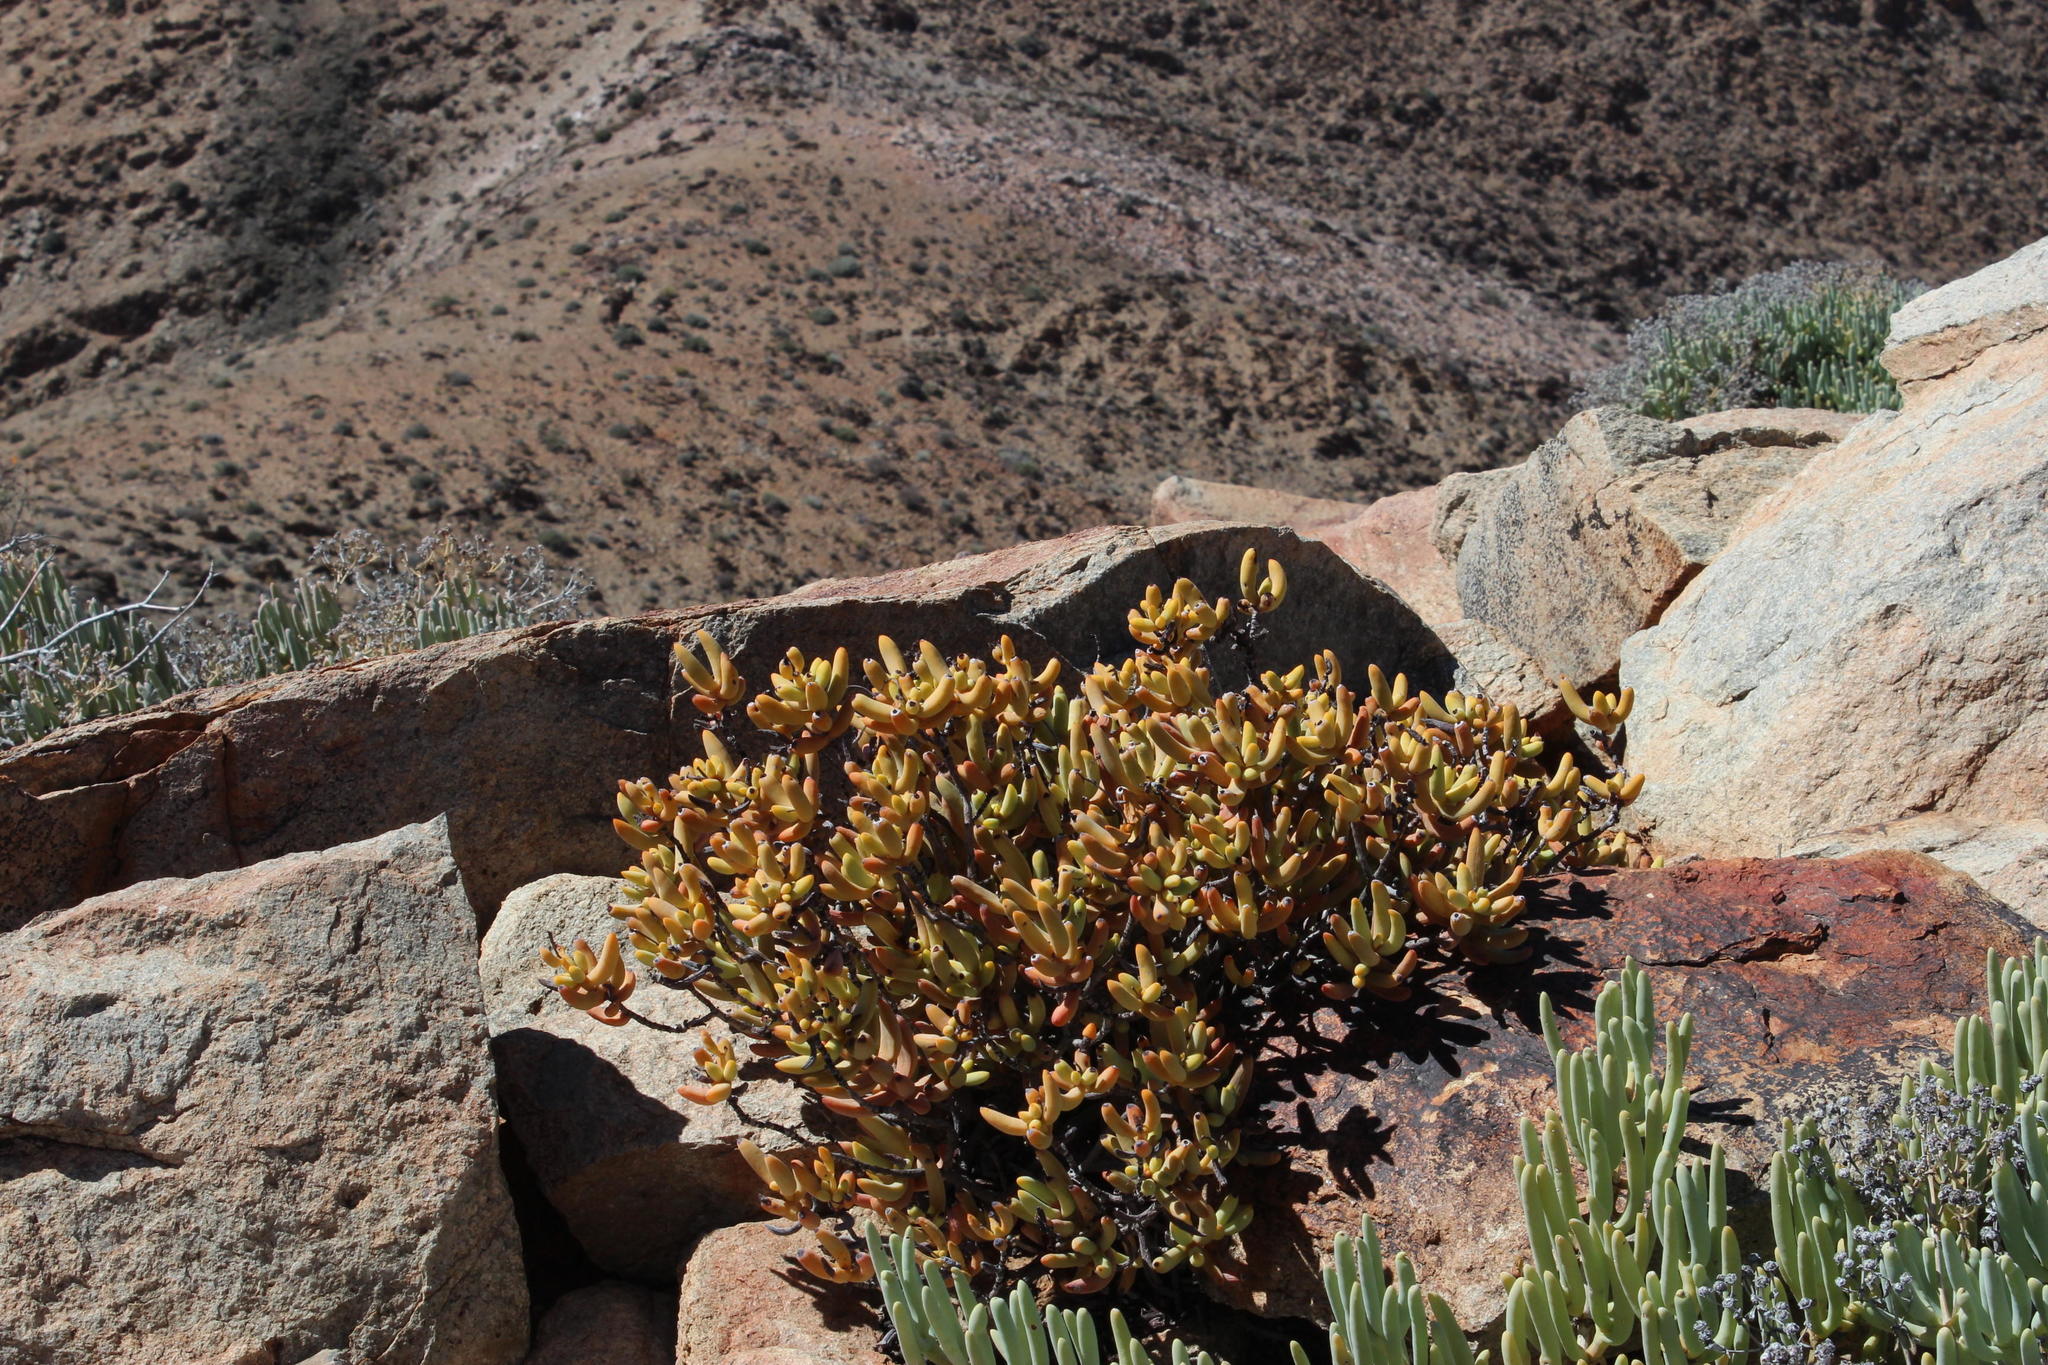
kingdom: Plantae
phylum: Tracheophyta
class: Magnoliopsida
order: Saxifragales
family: Crassulaceae
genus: Crassula
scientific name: Crassula brevifolia
